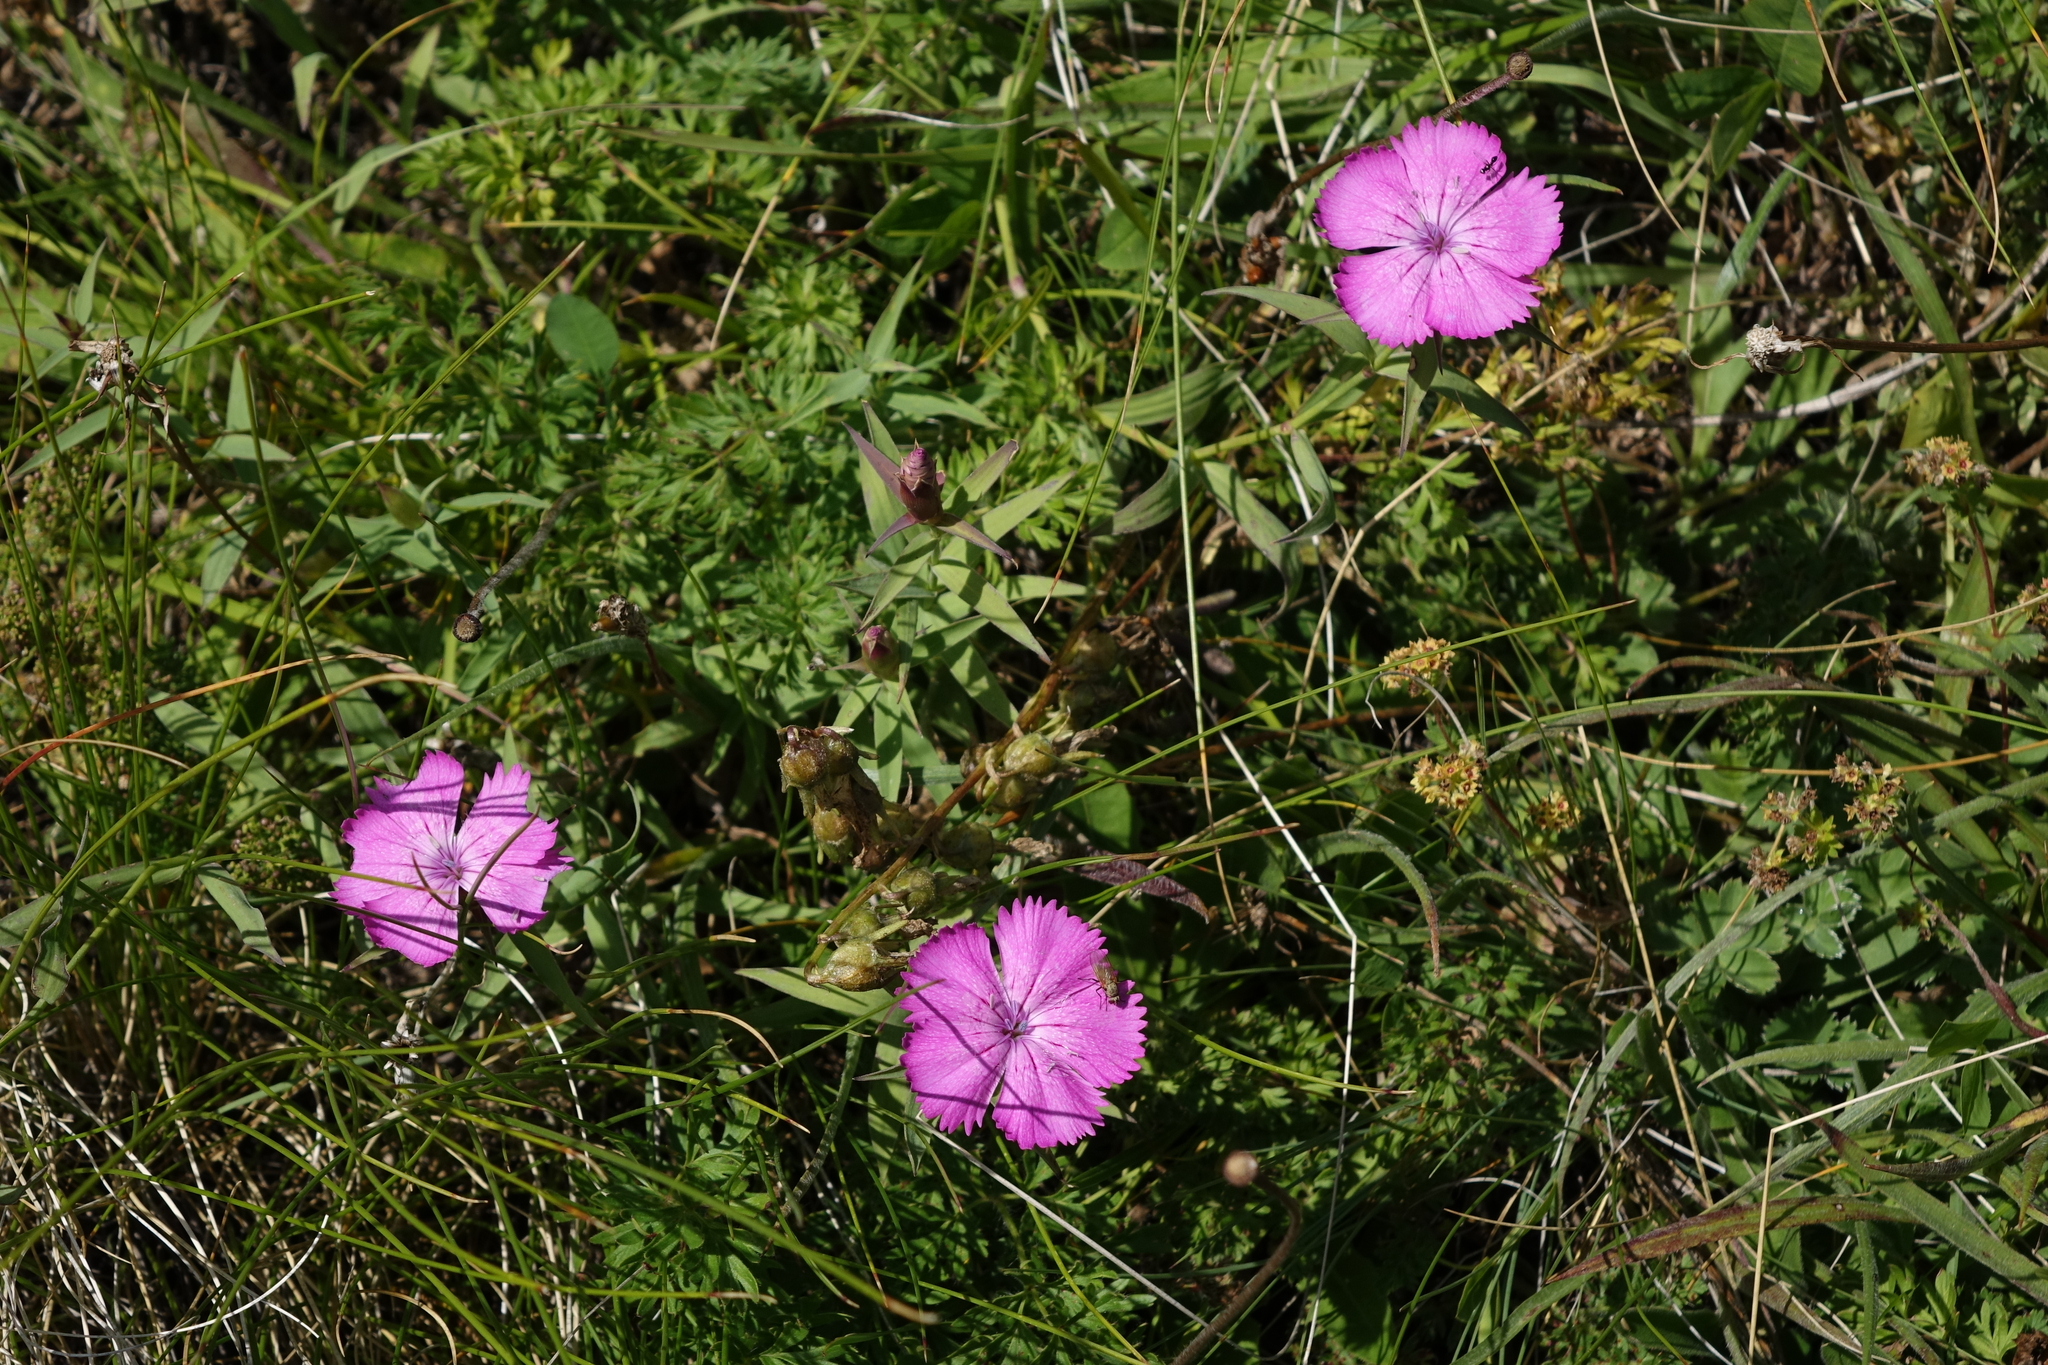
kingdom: Plantae
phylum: Tracheophyta
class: Magnoliopsida
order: Caryophyllales
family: Caryophyllaceae
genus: Dianthus
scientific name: Dianthus caucaseus
